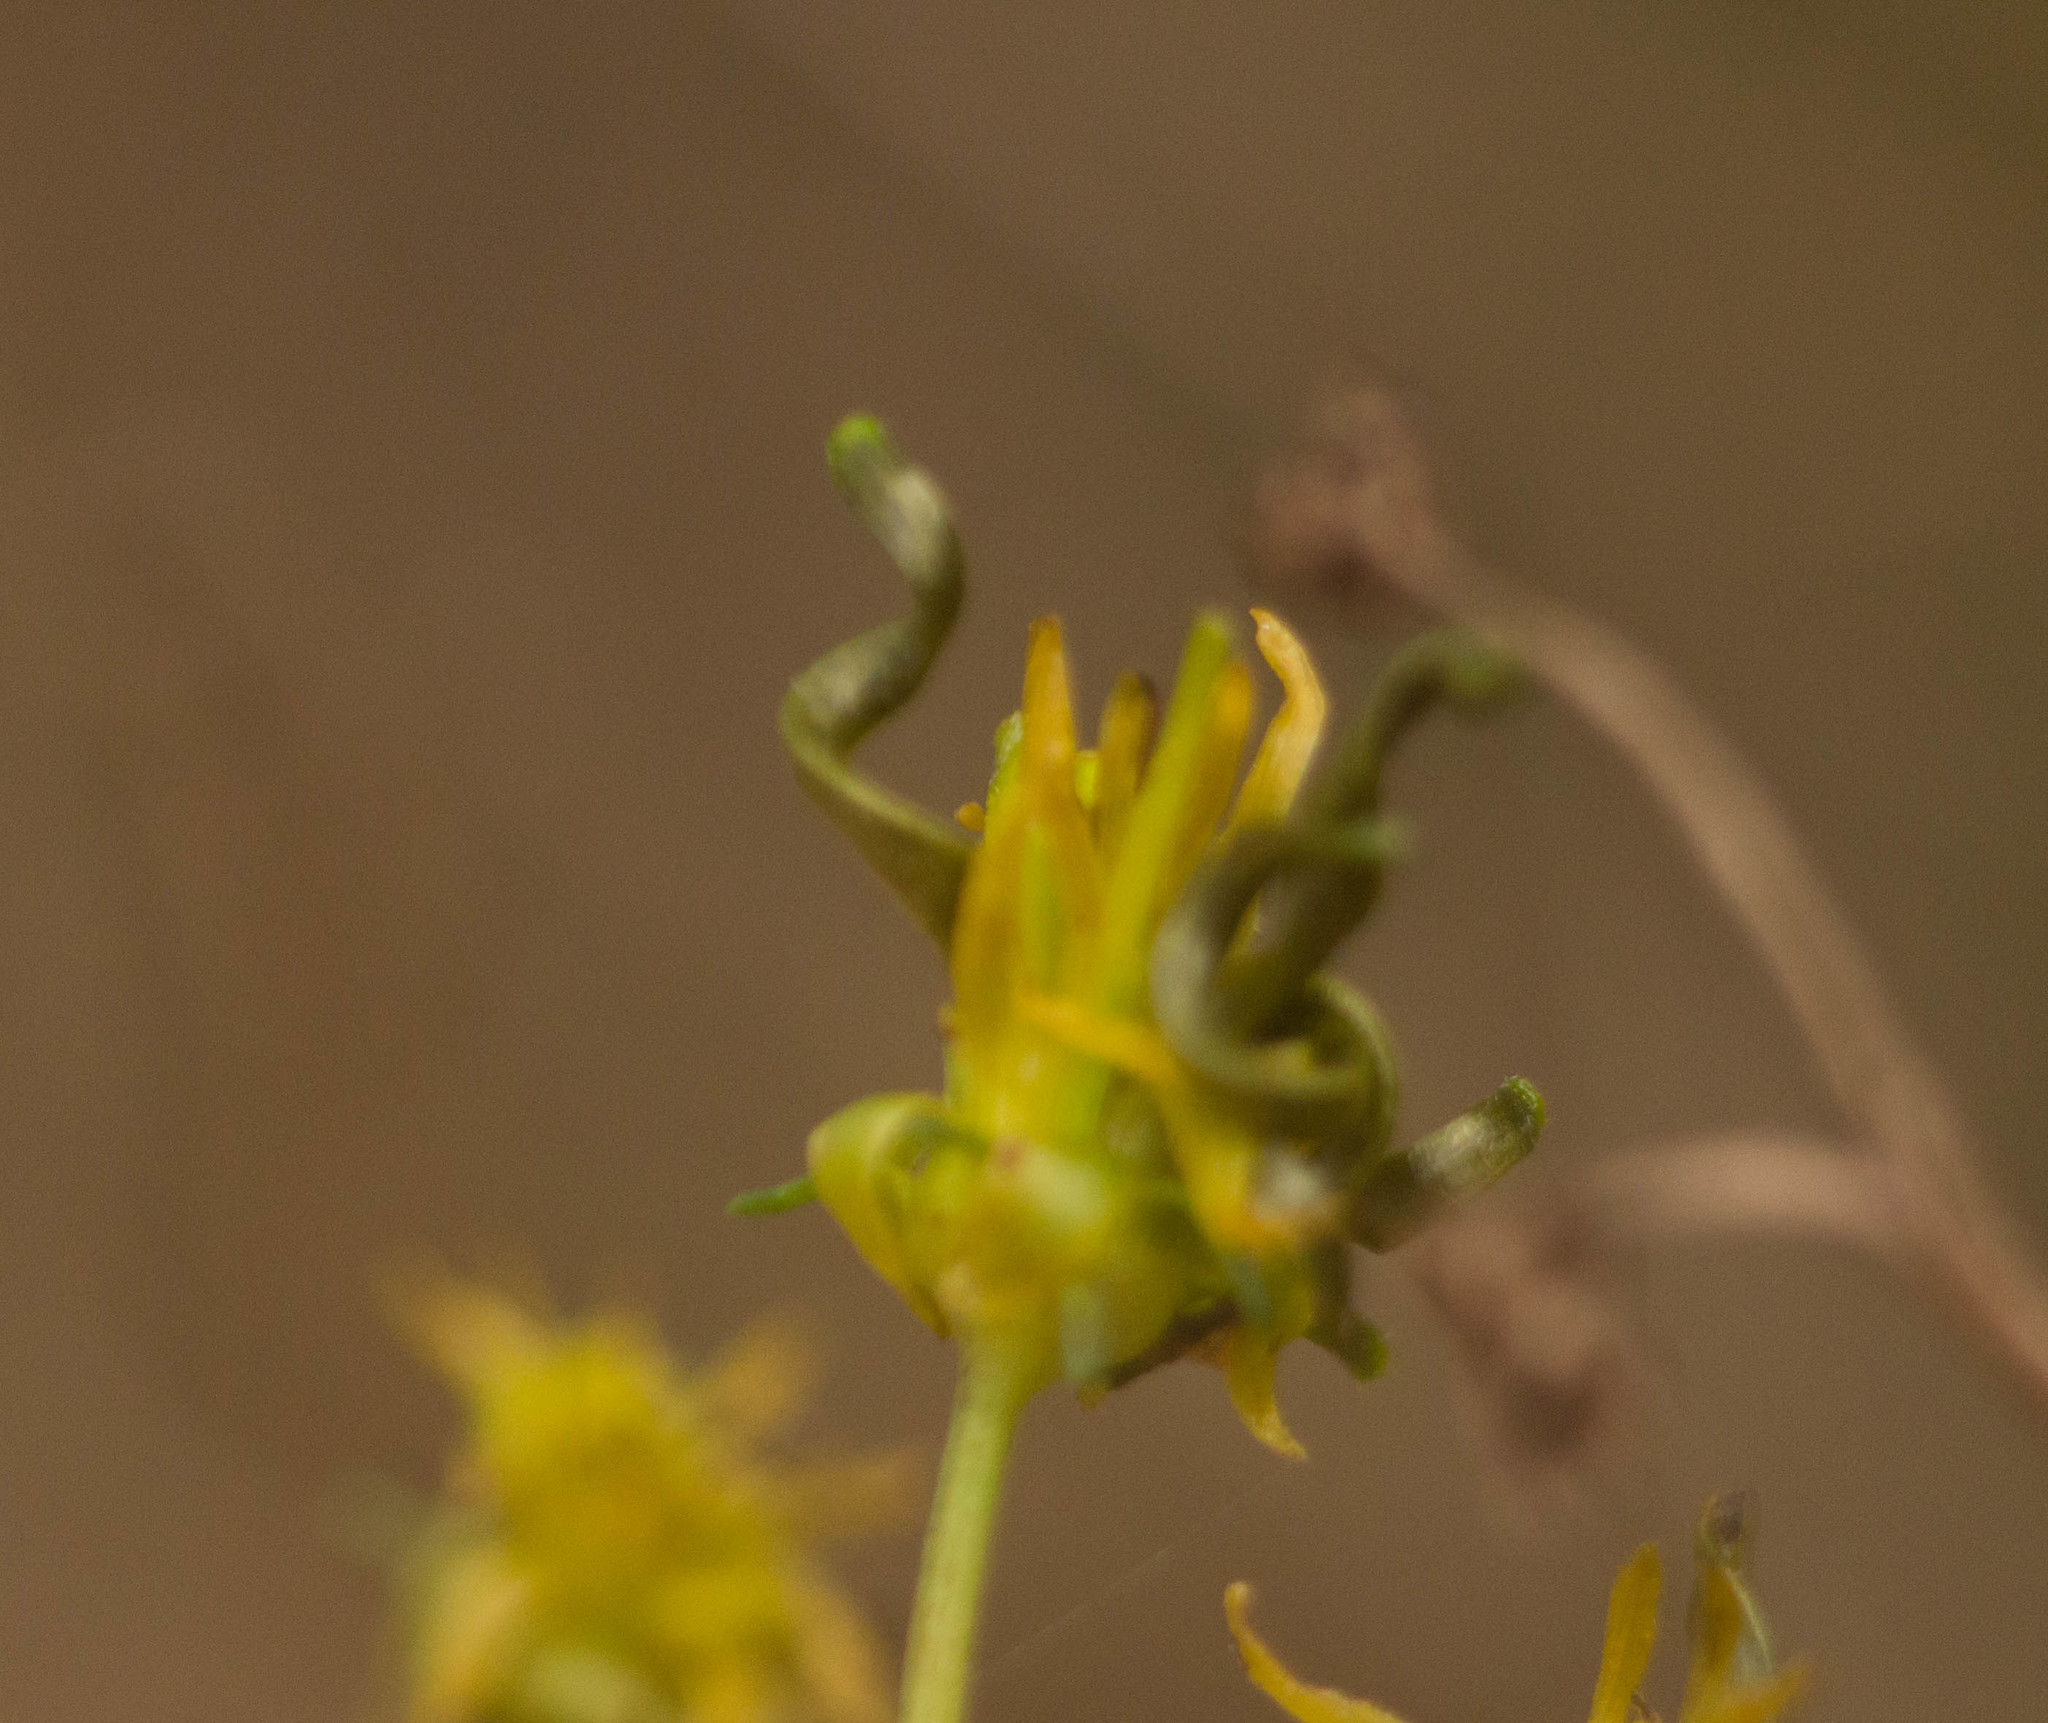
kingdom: Plantae
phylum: Tracheophyta
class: Magnoliopsida
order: Asterales
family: Asteraceae
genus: Bidens
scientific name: Bidens torta
